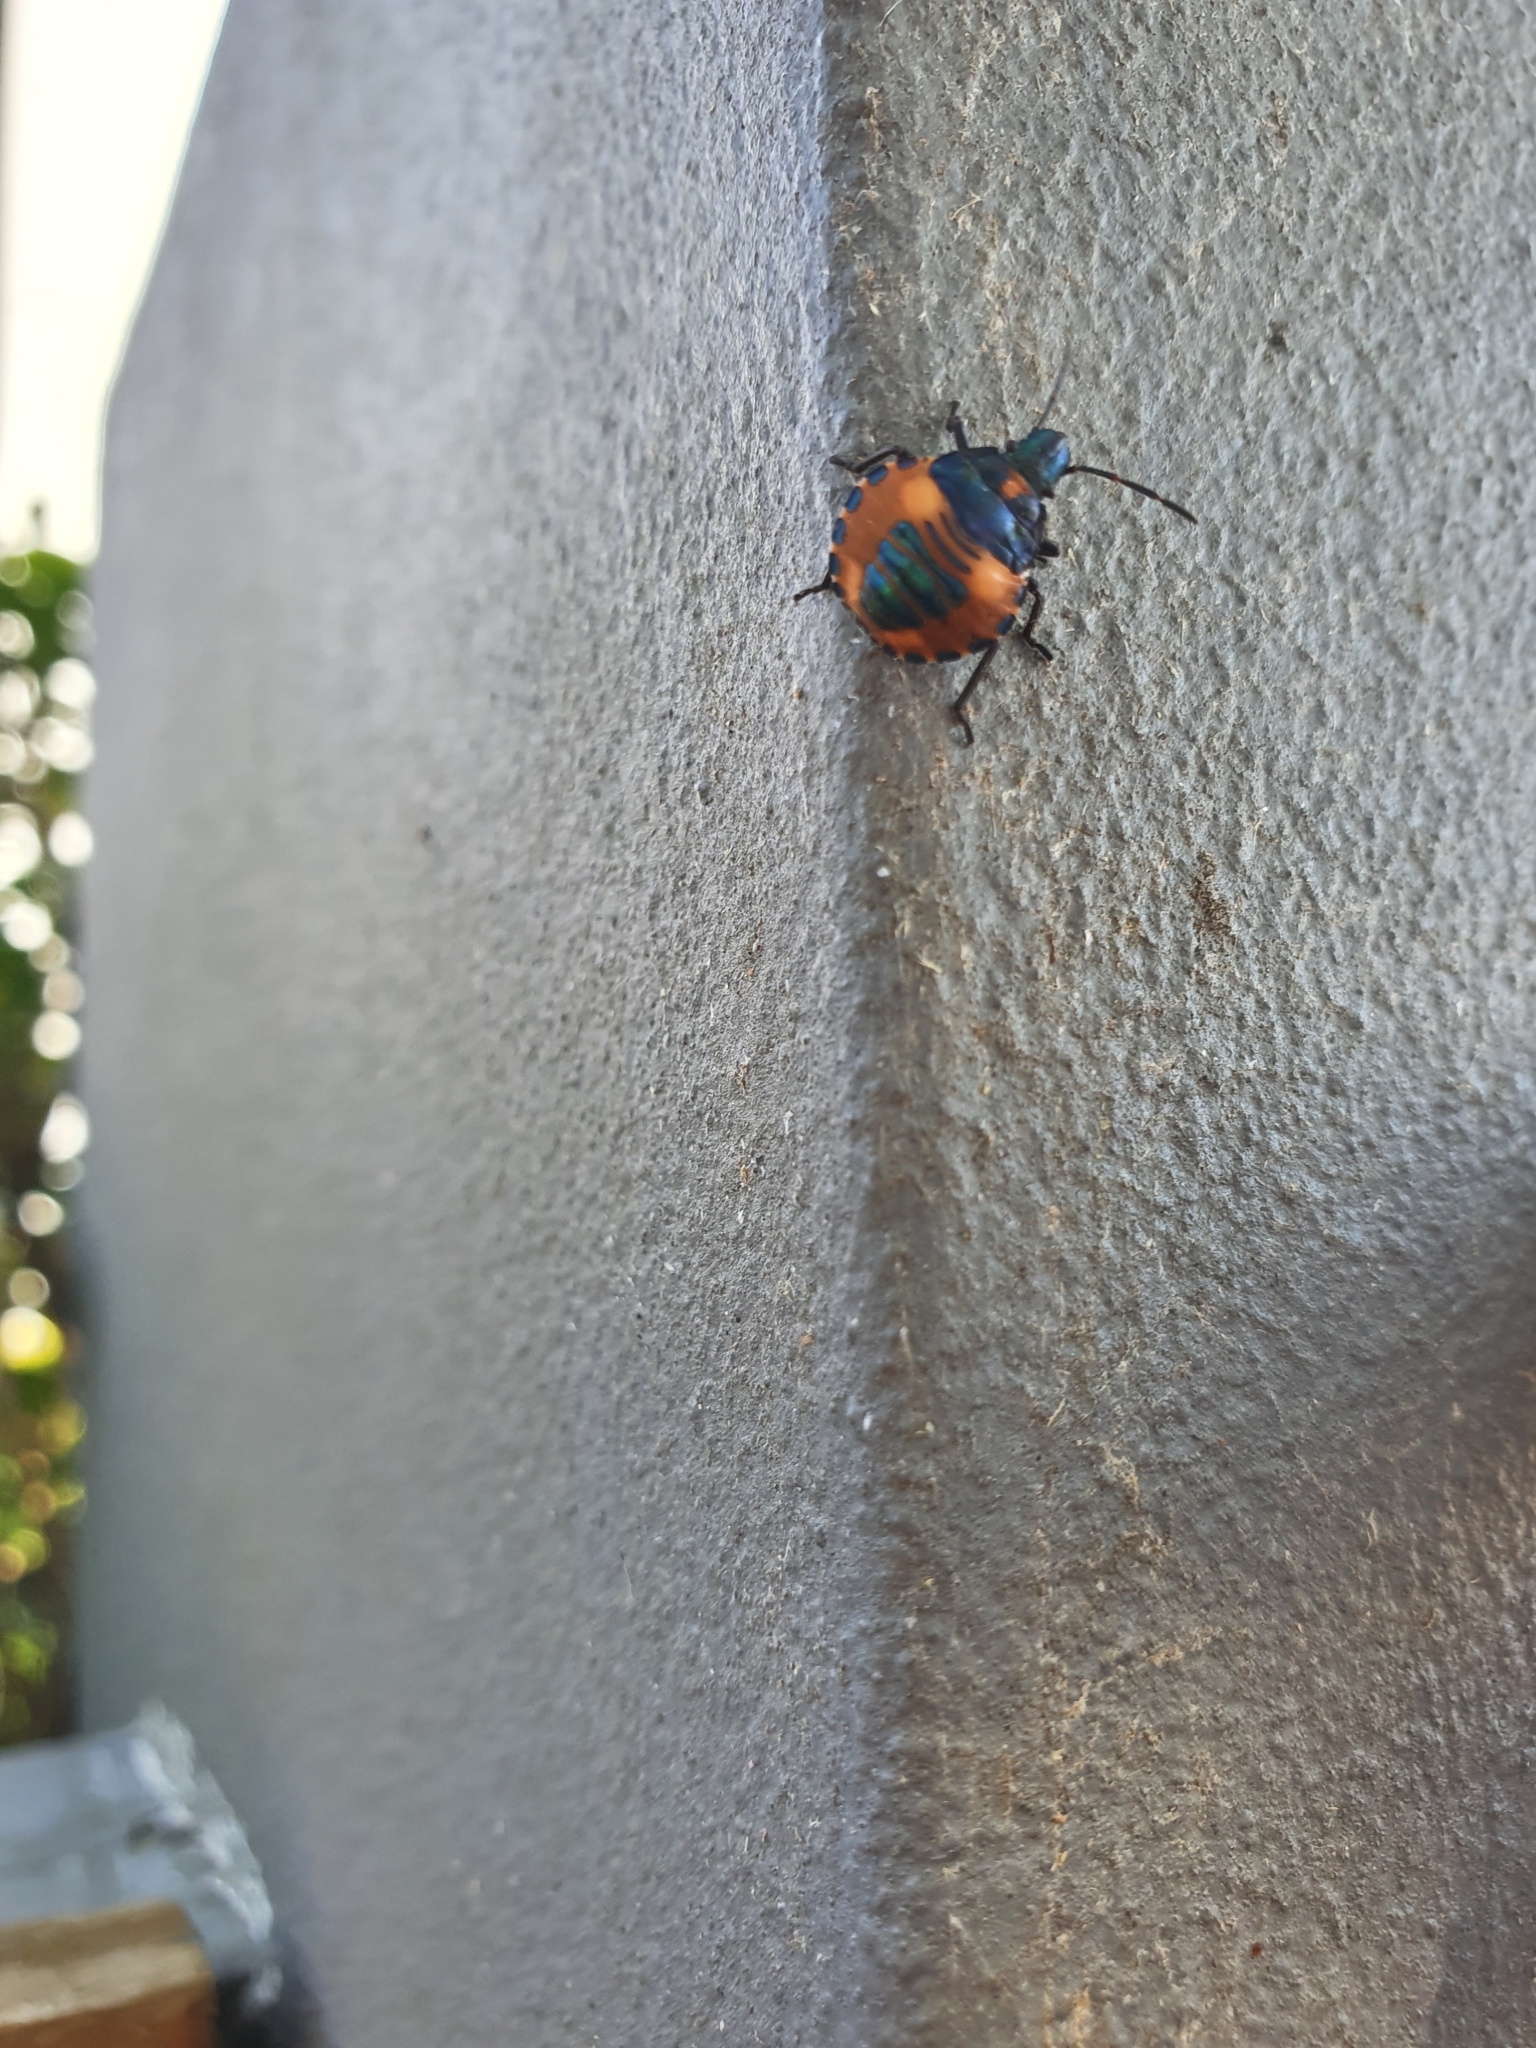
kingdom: Animalia
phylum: Arthropoda
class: Insecta
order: Hemiptera
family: Scutelleridae
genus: Tectocoris
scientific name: Tectocoris diophthalmus
